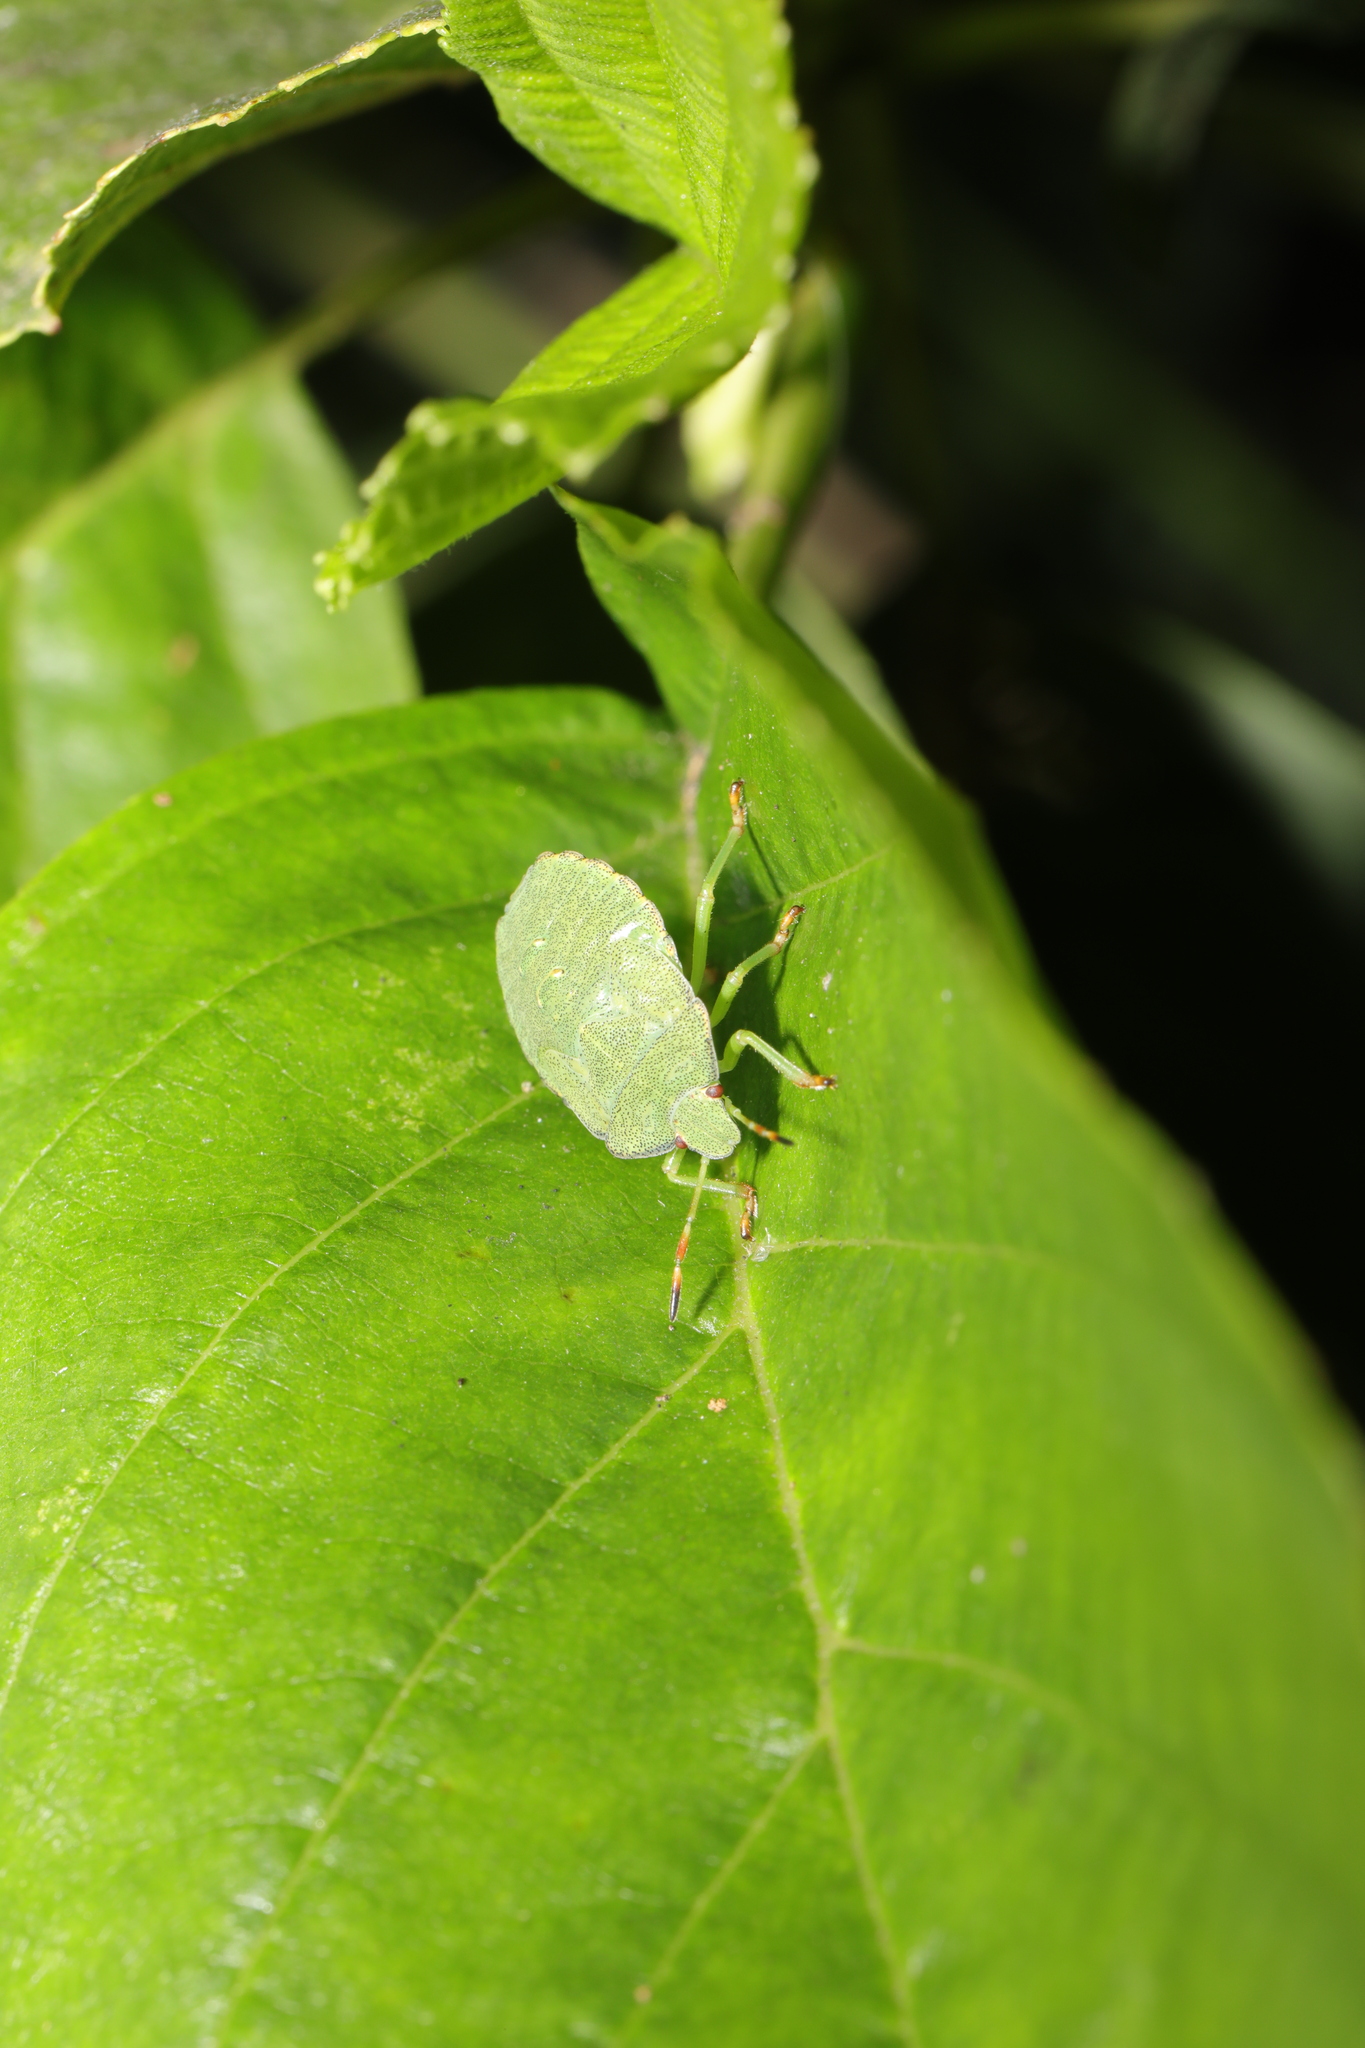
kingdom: Animalia
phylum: Arthropoda
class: Insecta
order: Hemiptera
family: Pentatomidae
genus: Palomena
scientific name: Palomena prasina
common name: Green shieldbug
